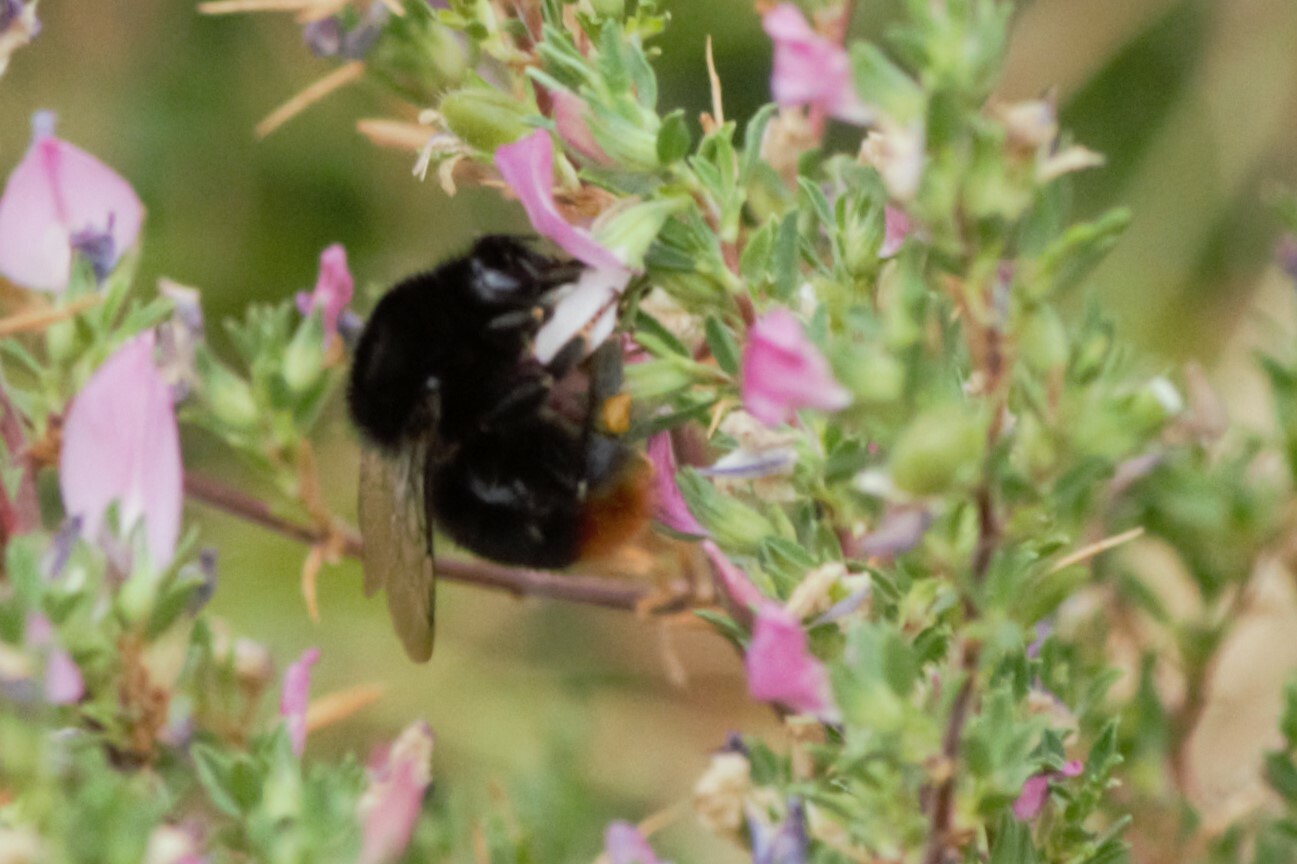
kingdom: Animalia
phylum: Arthropoda
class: Insecta
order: Hymenoptera
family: Apidae
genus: Bombus
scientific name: Bombus lapidarius
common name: Large red-tailed humble-bee
